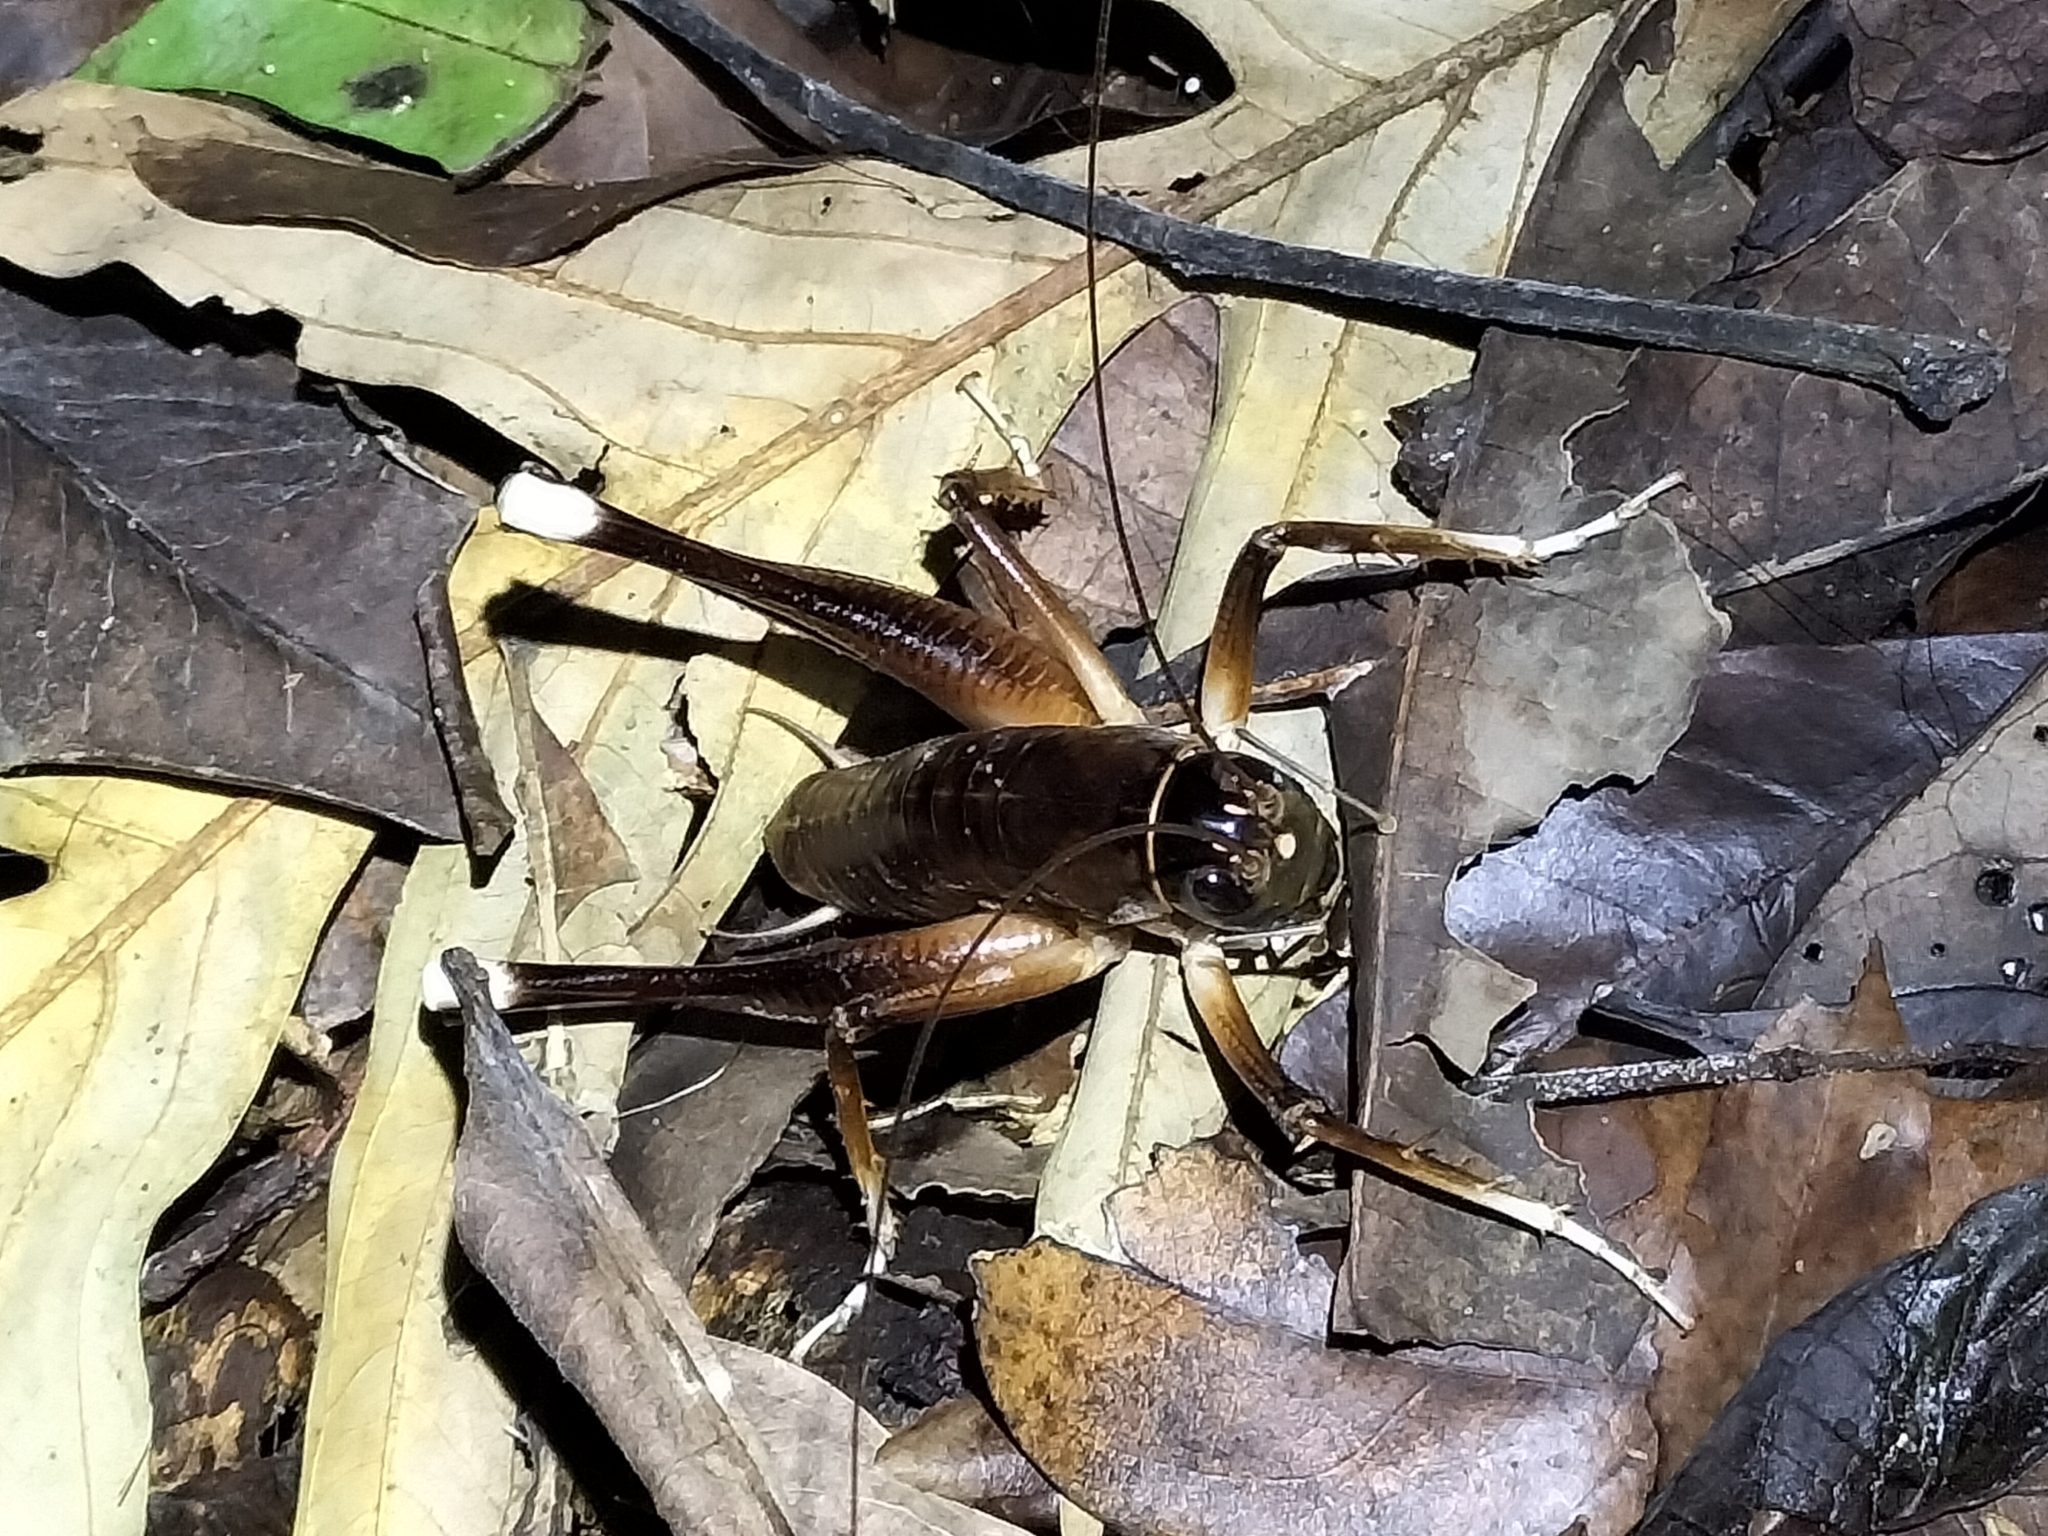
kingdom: Animalia
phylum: Arthropoda
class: Insecta
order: Orthoptera
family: Anostostomatidae
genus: Penalva
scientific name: Penalva flavocalceata
